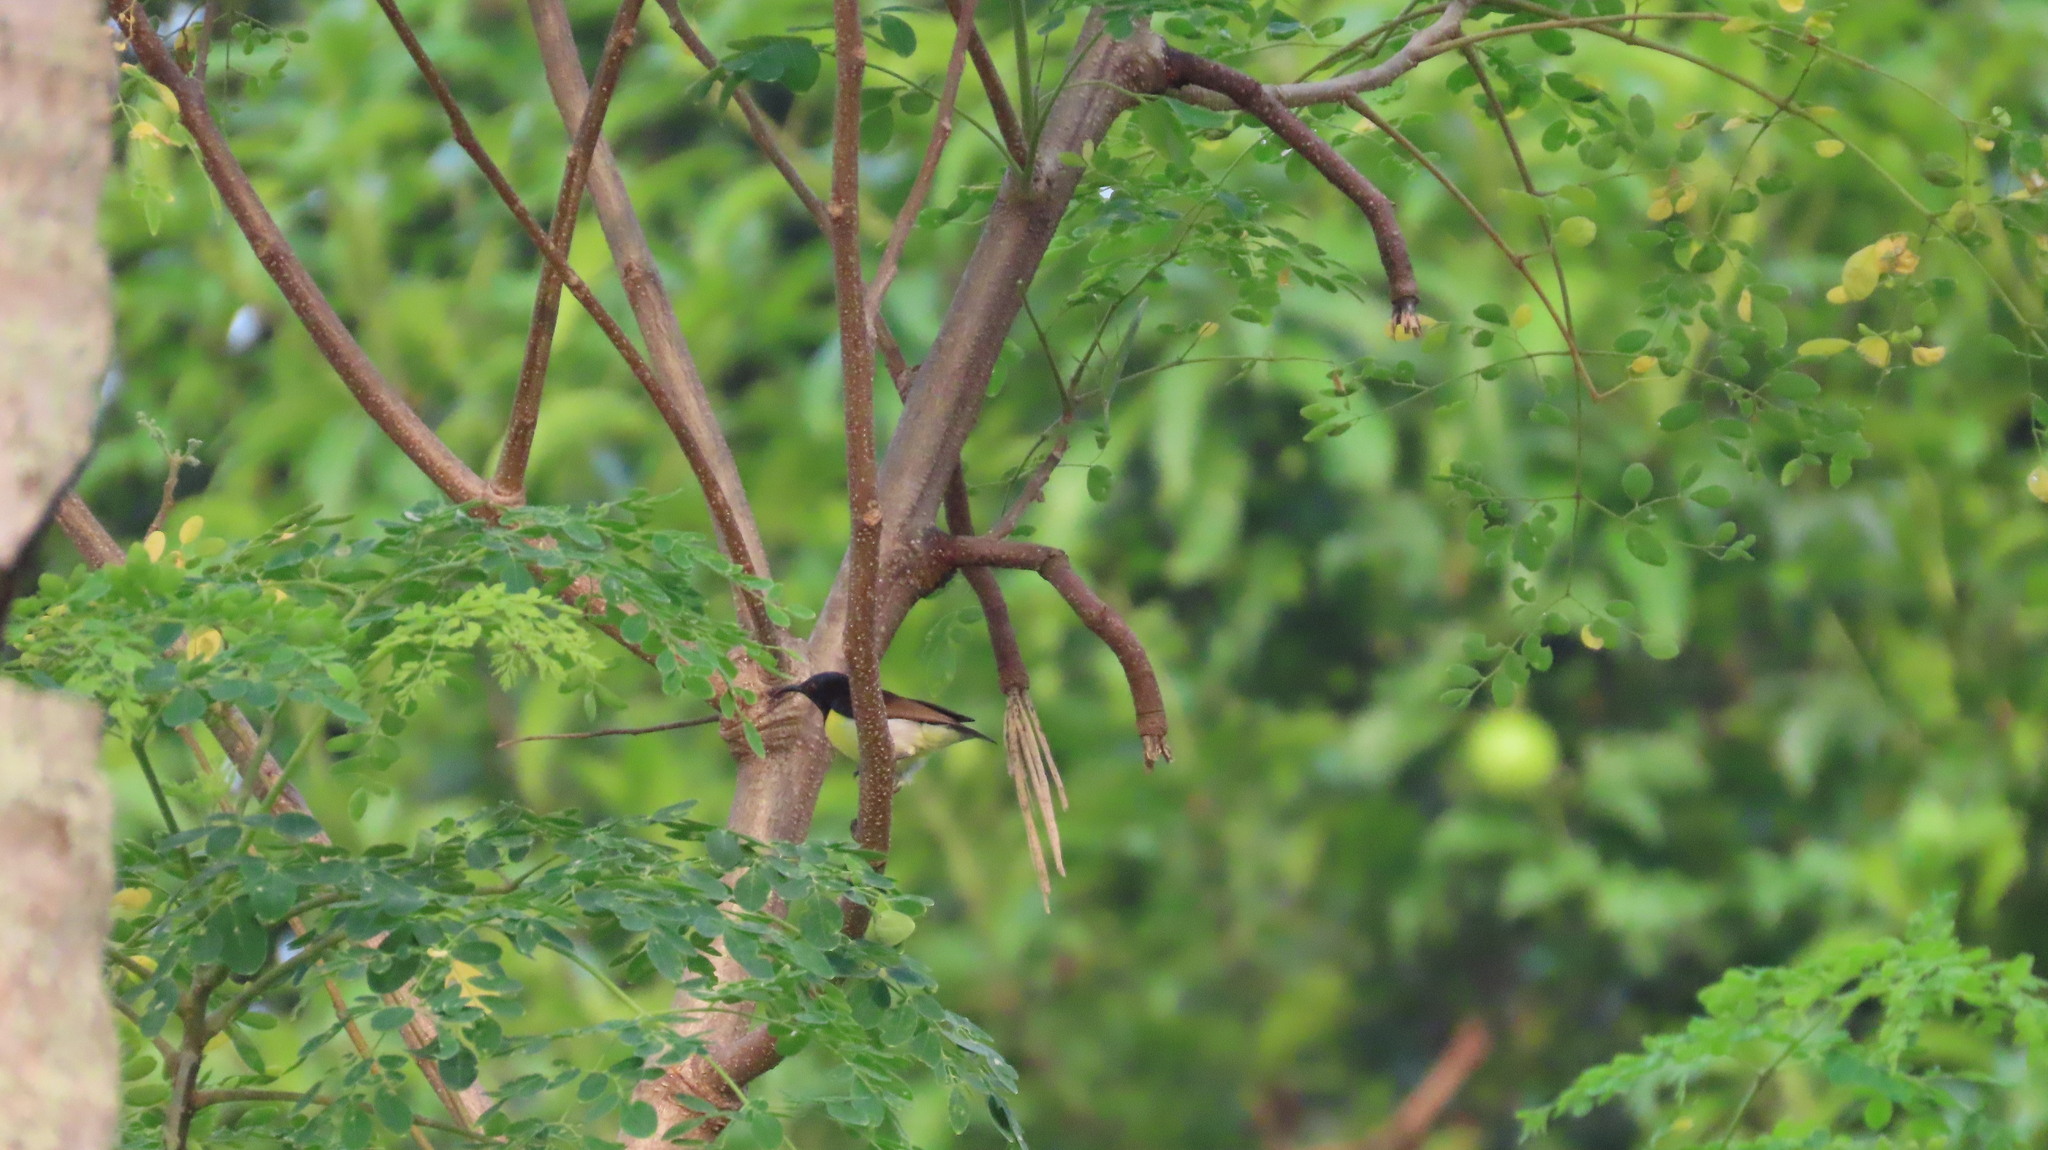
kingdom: Animalia
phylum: Chordata
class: Aves
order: Passeriformes
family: Nectariniidae
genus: Leptocoma
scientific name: Leptocoma zeylonica
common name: Purple-rumped sunbird
